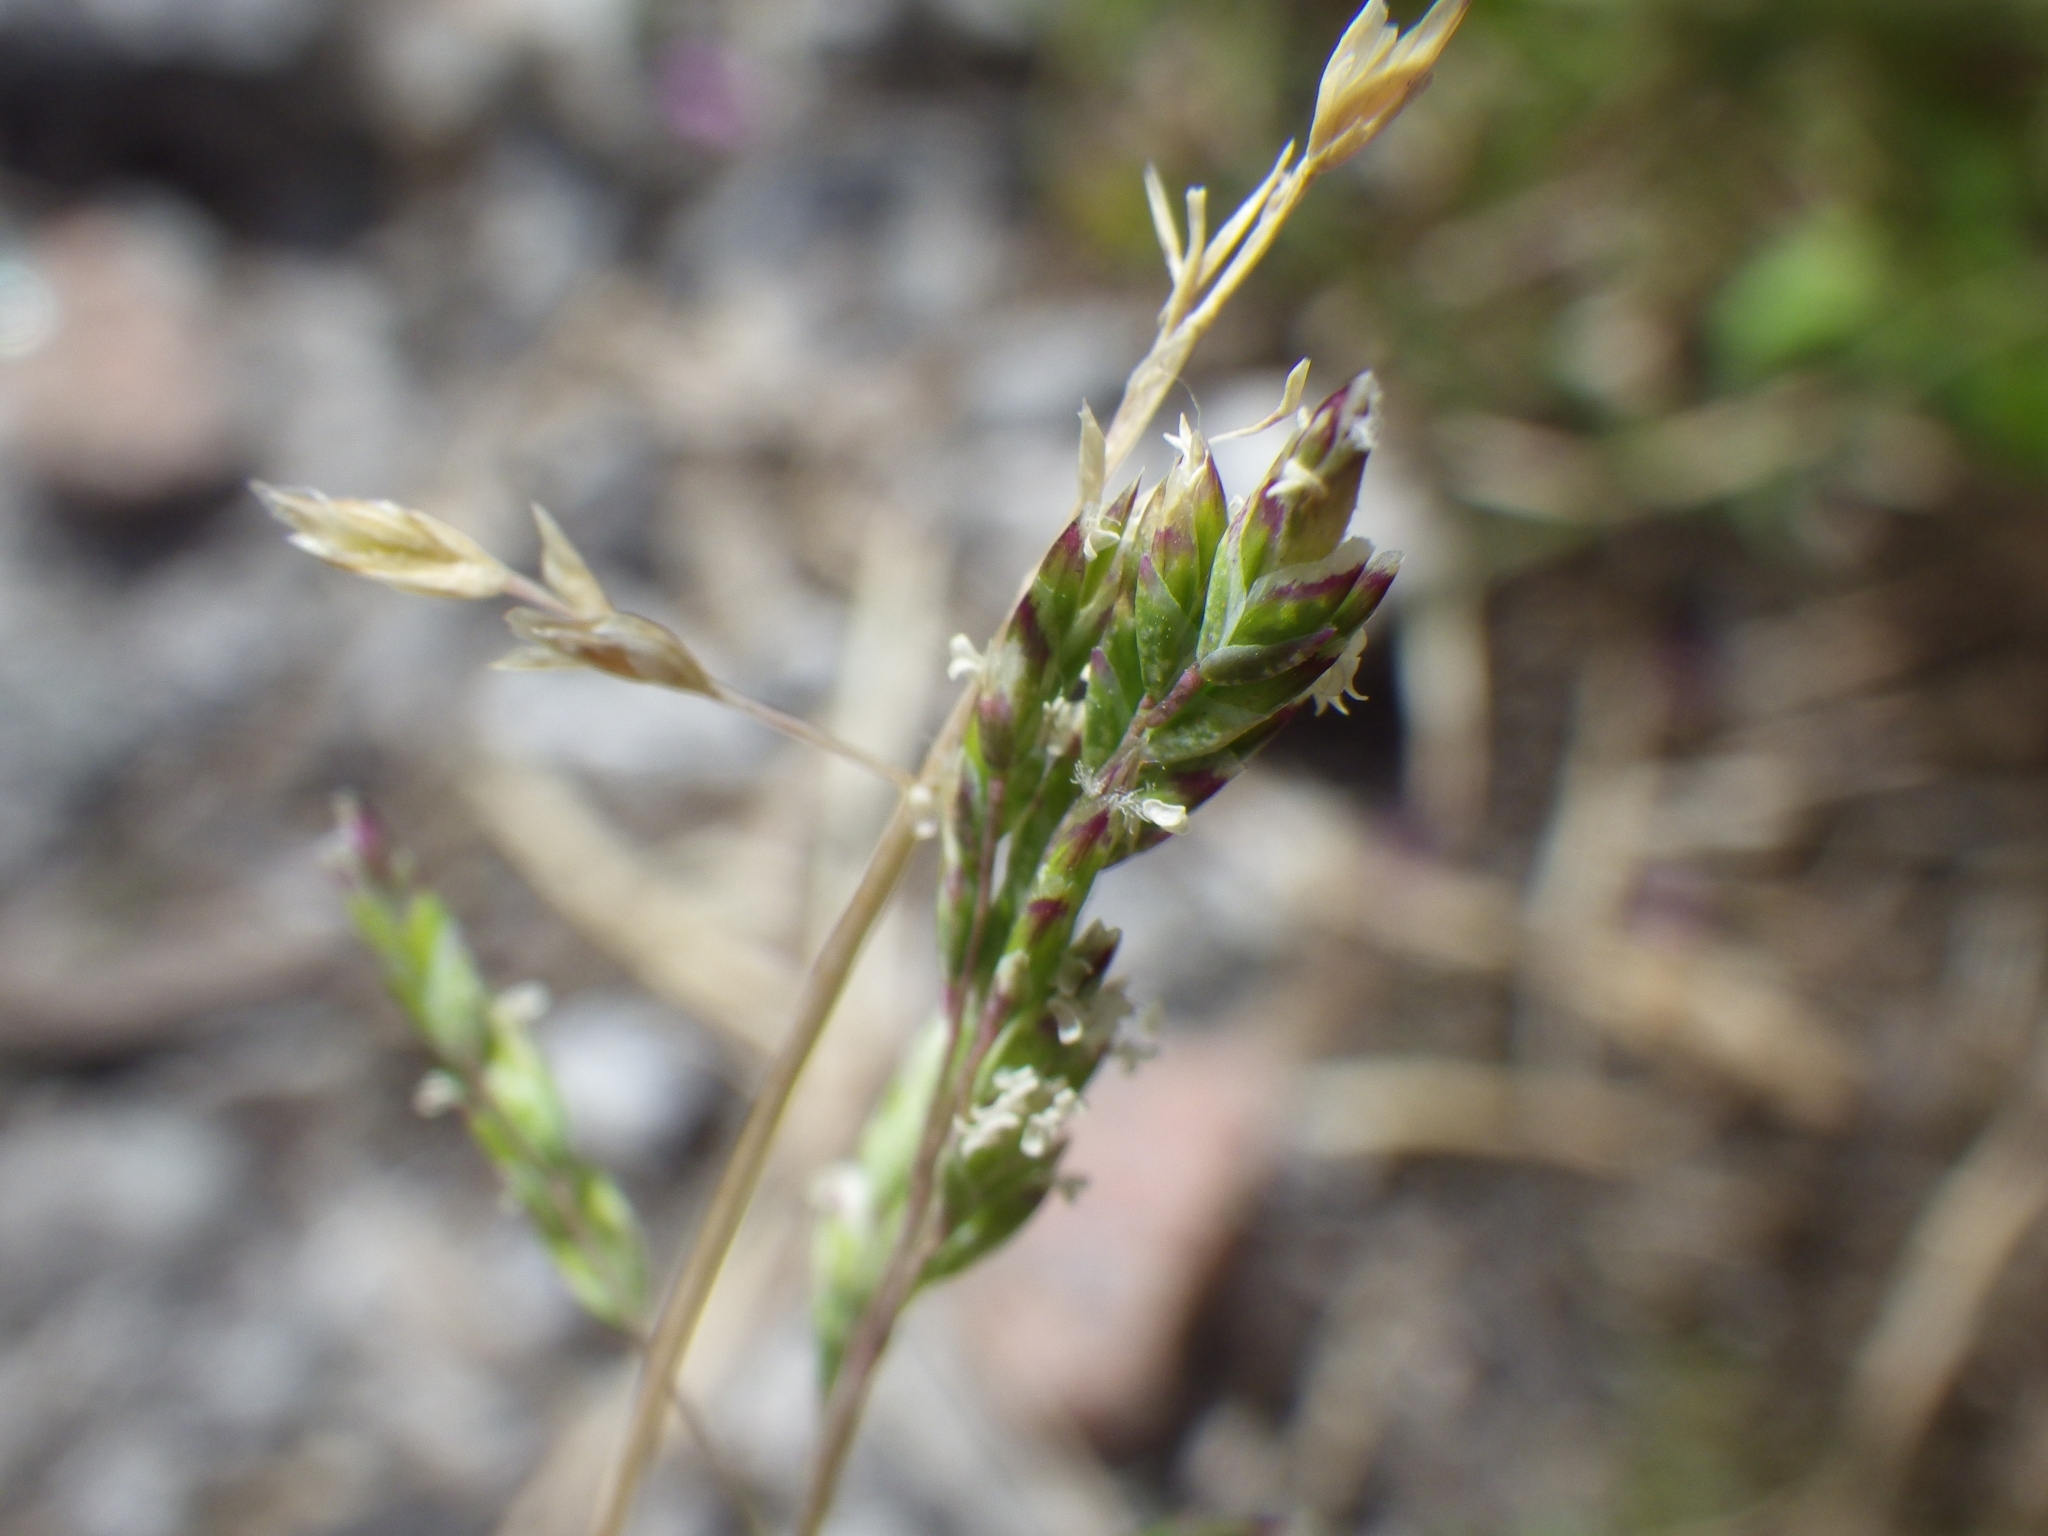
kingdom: Plantae
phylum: Tracheophyta
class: Liliopsida
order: Poales
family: Poaceae
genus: Poa
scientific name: Poa annua
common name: Annual bluegrass
